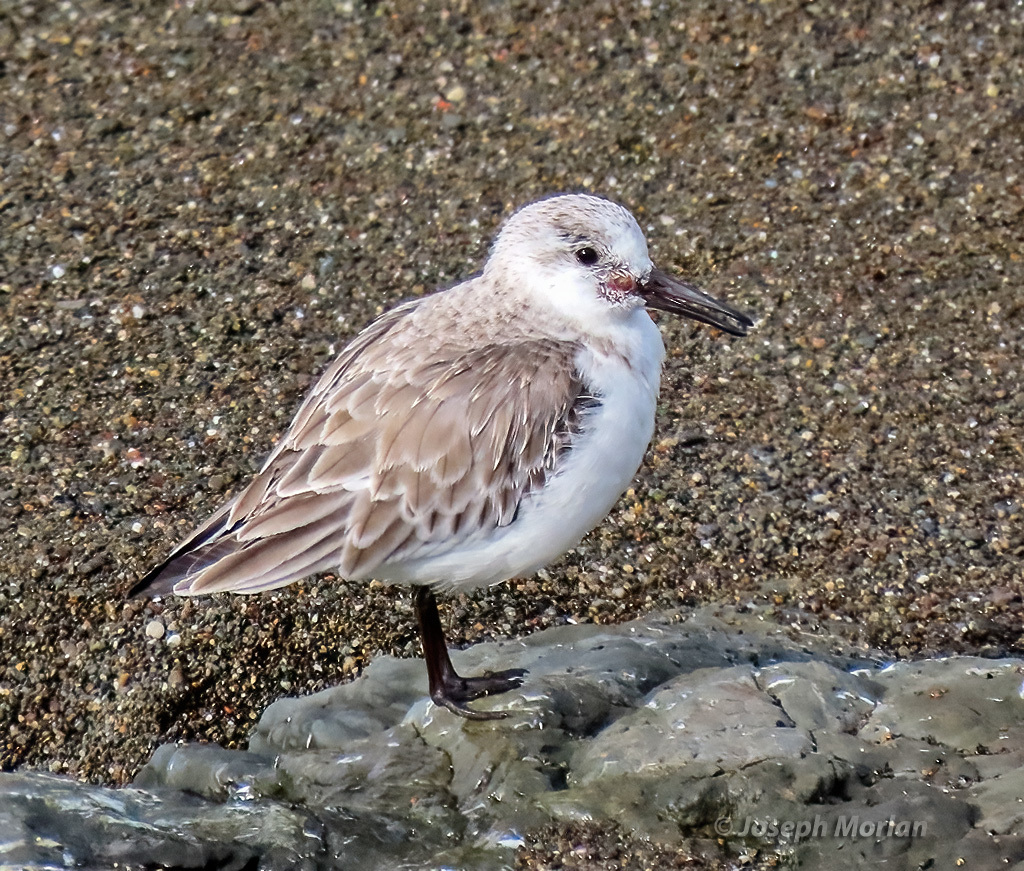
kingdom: Animalia
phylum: Chordata
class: Aves
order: Charadriiformes
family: Scolopacidae
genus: Calidris
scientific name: Calidris alba
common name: Sanderling
